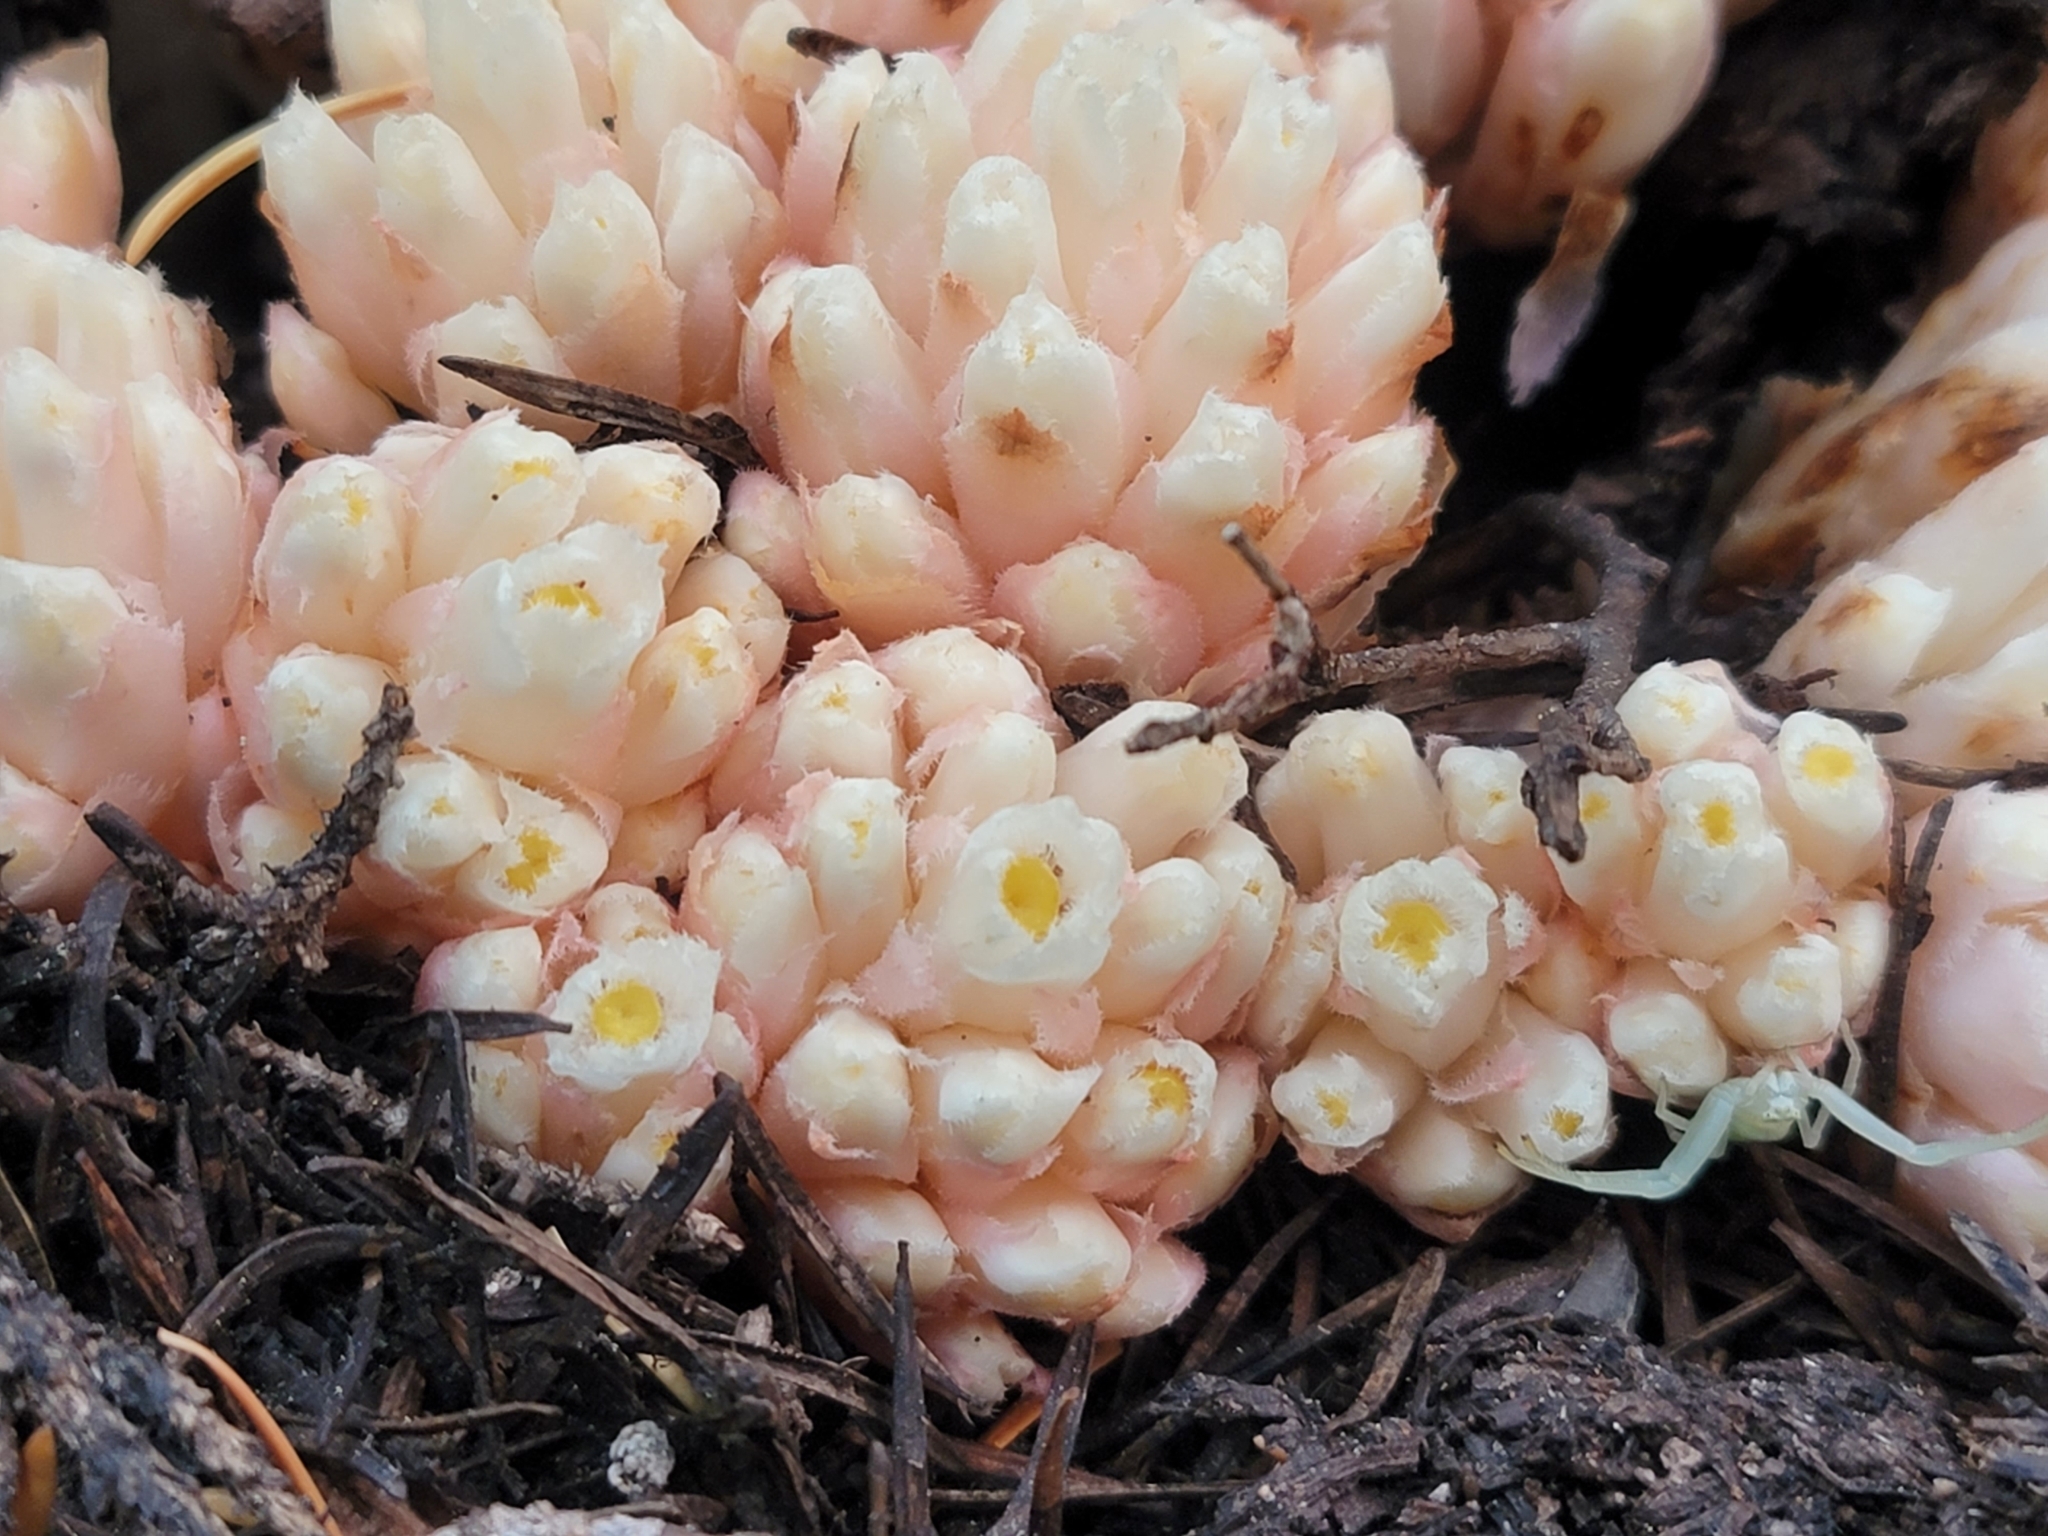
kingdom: Plantae
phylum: Tracheophyta
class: Magnoliopsida
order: Ericales
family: Ericaceae
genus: Hemitomes
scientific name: Hemitomes congestum
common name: Cone plant
